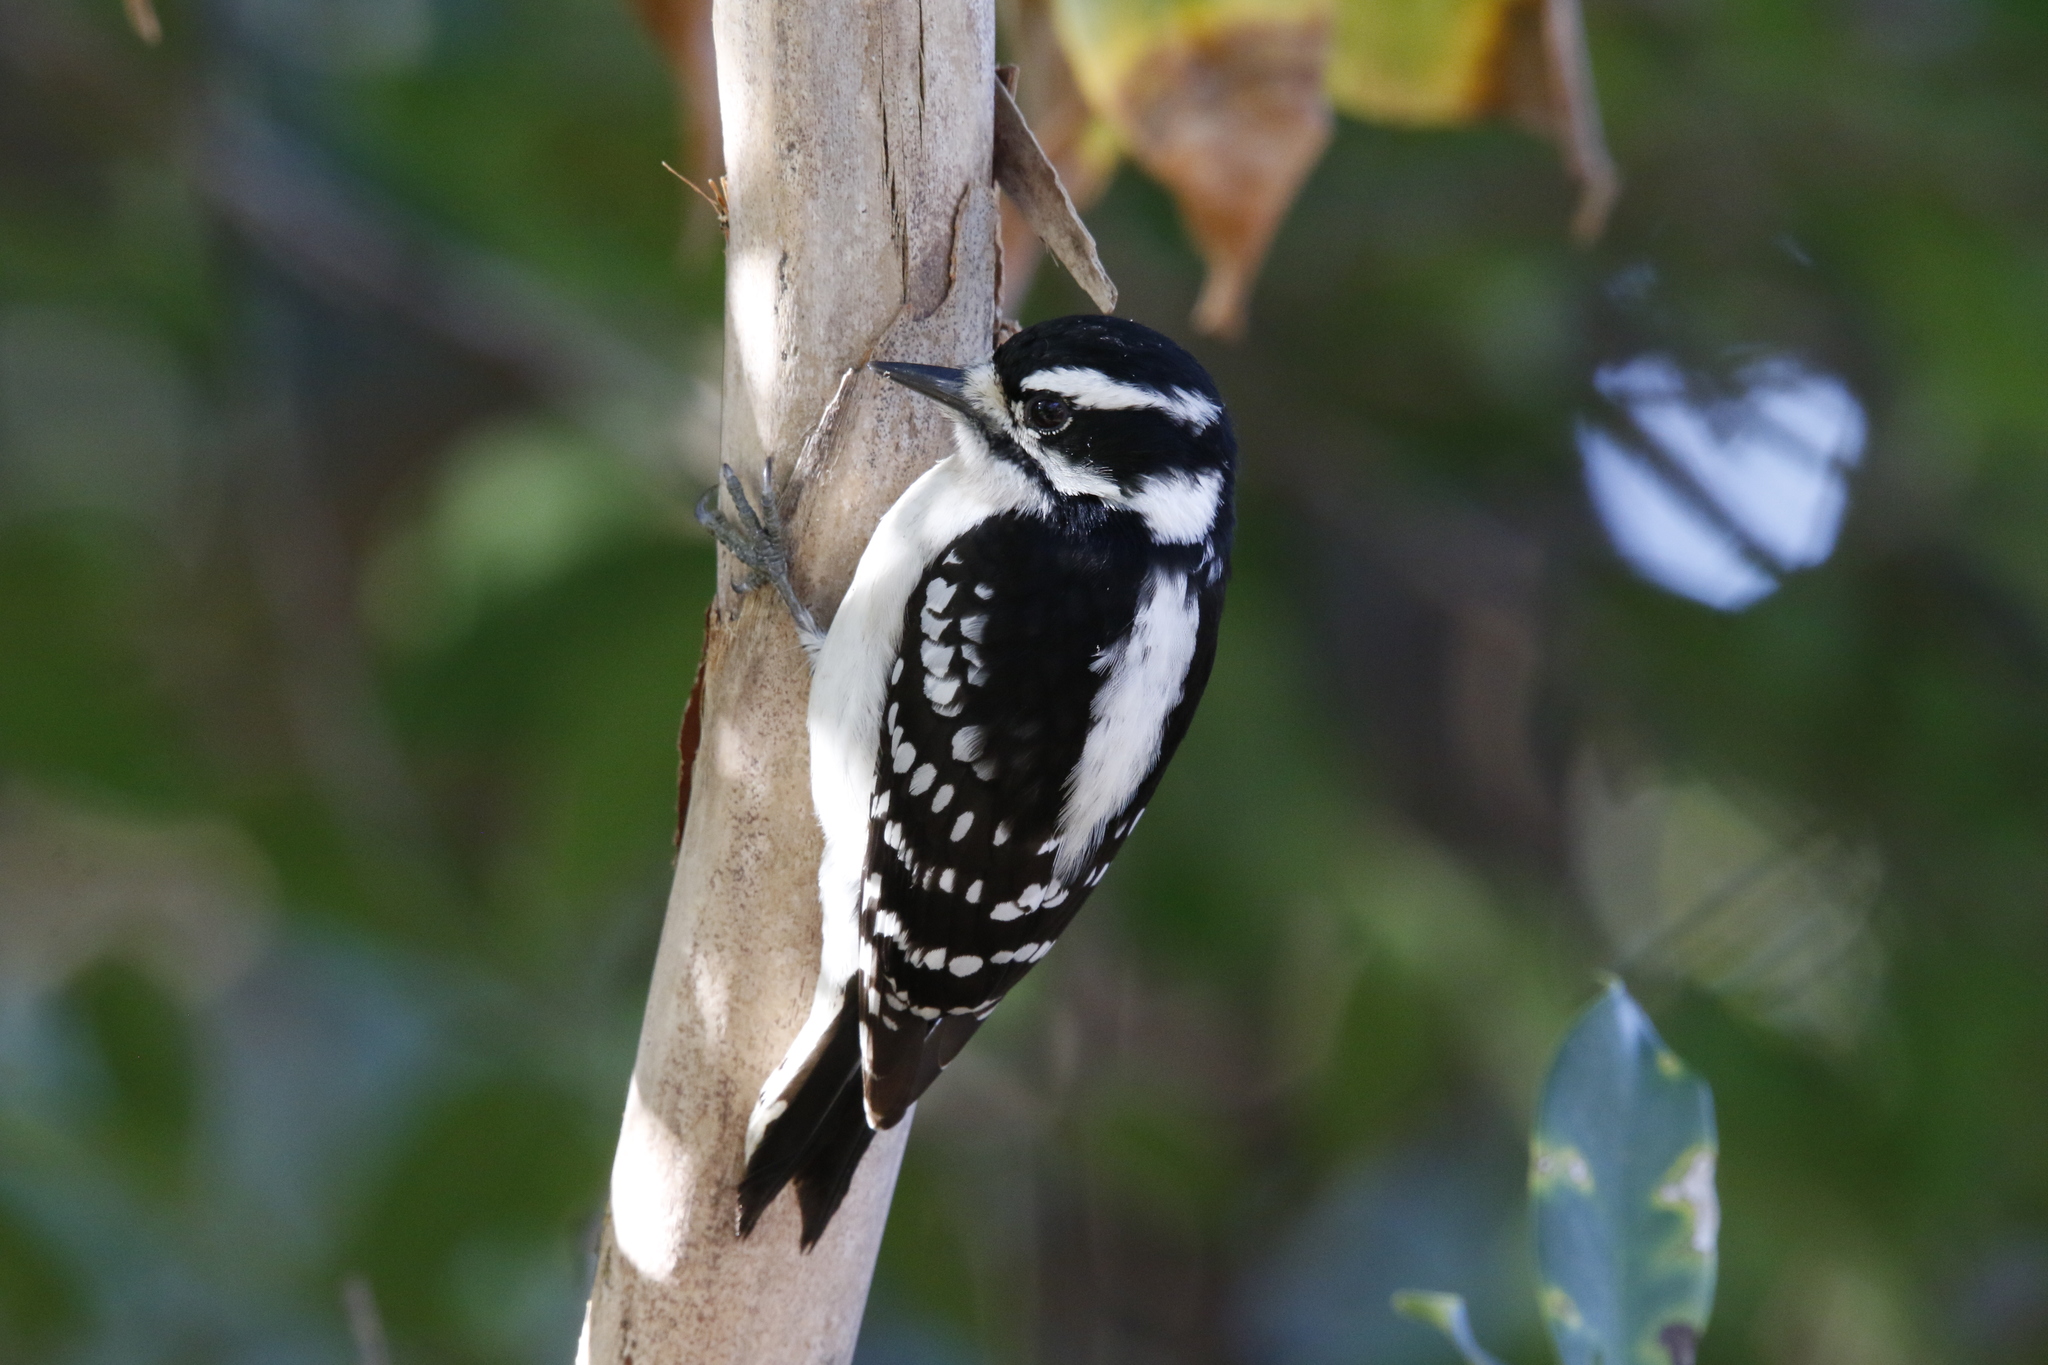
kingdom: Animalia
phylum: Chordata
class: Aves
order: Piciformes
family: Picidae
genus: Dryobates
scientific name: Dryobates pubescens
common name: Downy woodpecker
